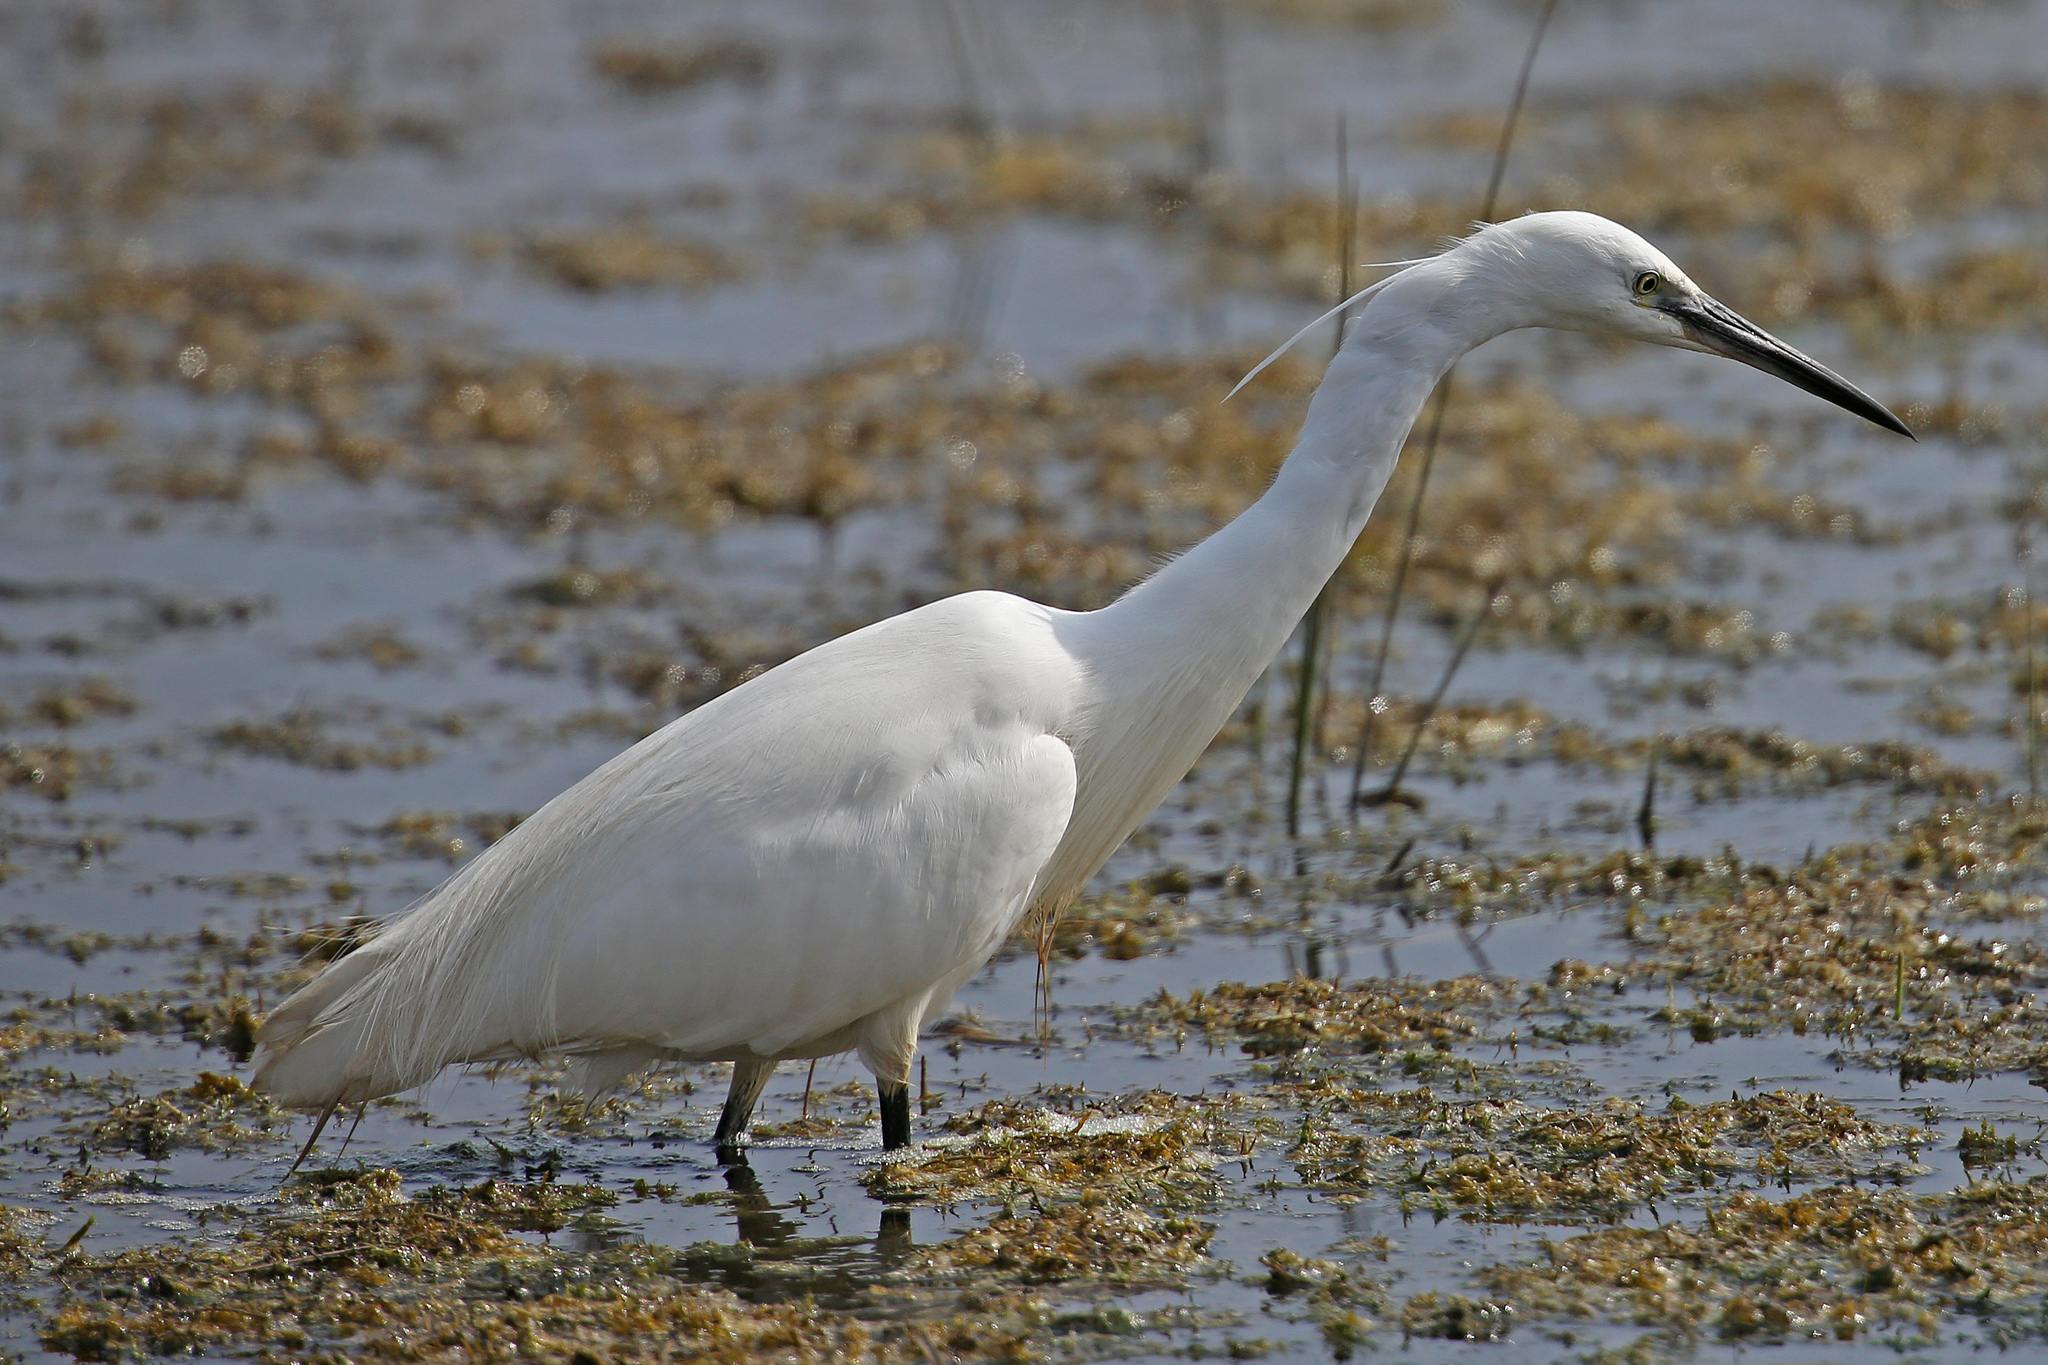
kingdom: Animalia
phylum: Chordata
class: Aves
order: Pelecaniformes
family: Ardeidae
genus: Egretta
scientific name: Egretta garzetta
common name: Little egret
